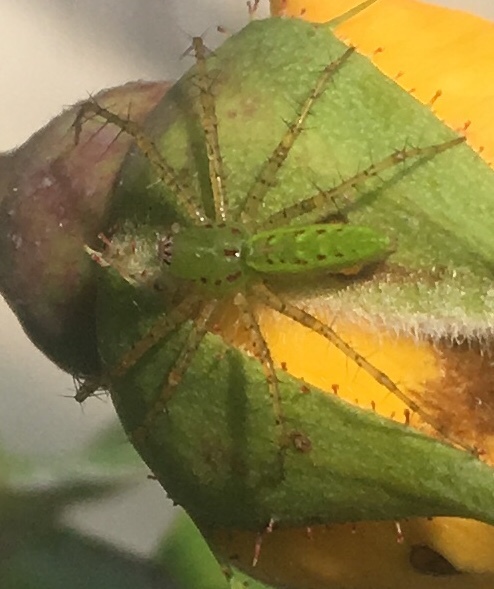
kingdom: Animalia
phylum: Arthropoda
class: Arachnida
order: Araneae
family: Oxyopidae
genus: Peucetia
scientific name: Peucetia viridans
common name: Lynx spiders
